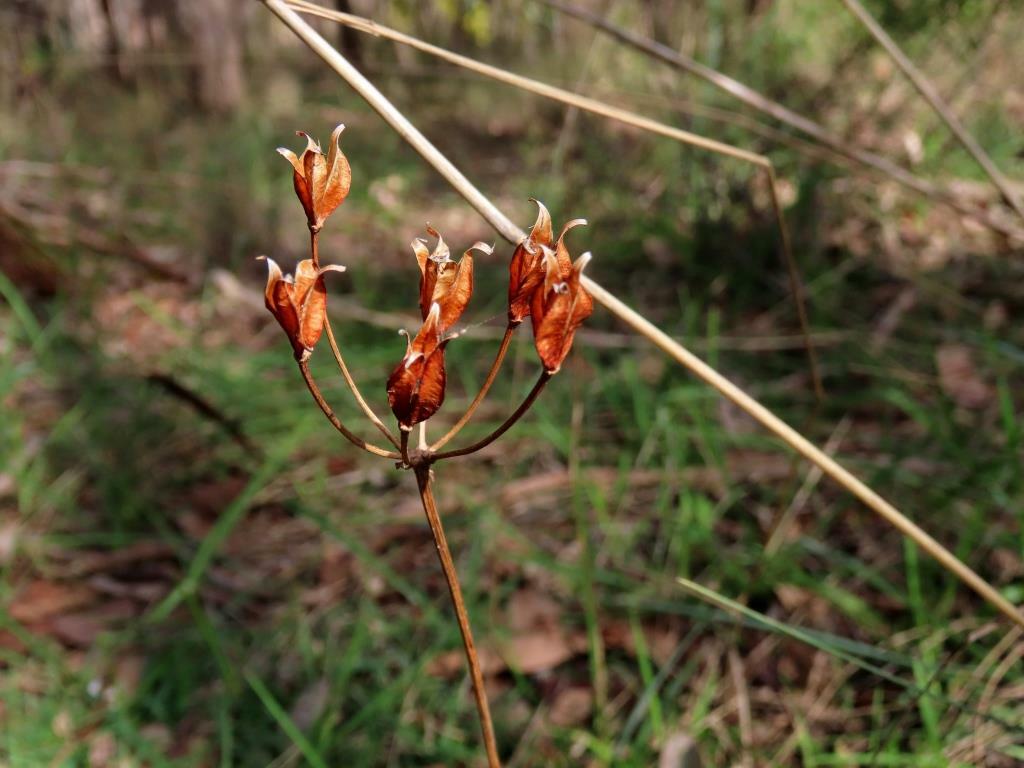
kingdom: Plantae
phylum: Tracheophyta
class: Liliopsida
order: Liliales
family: Colchicaceae
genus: Burchardia
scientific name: Burchardia umbellata
